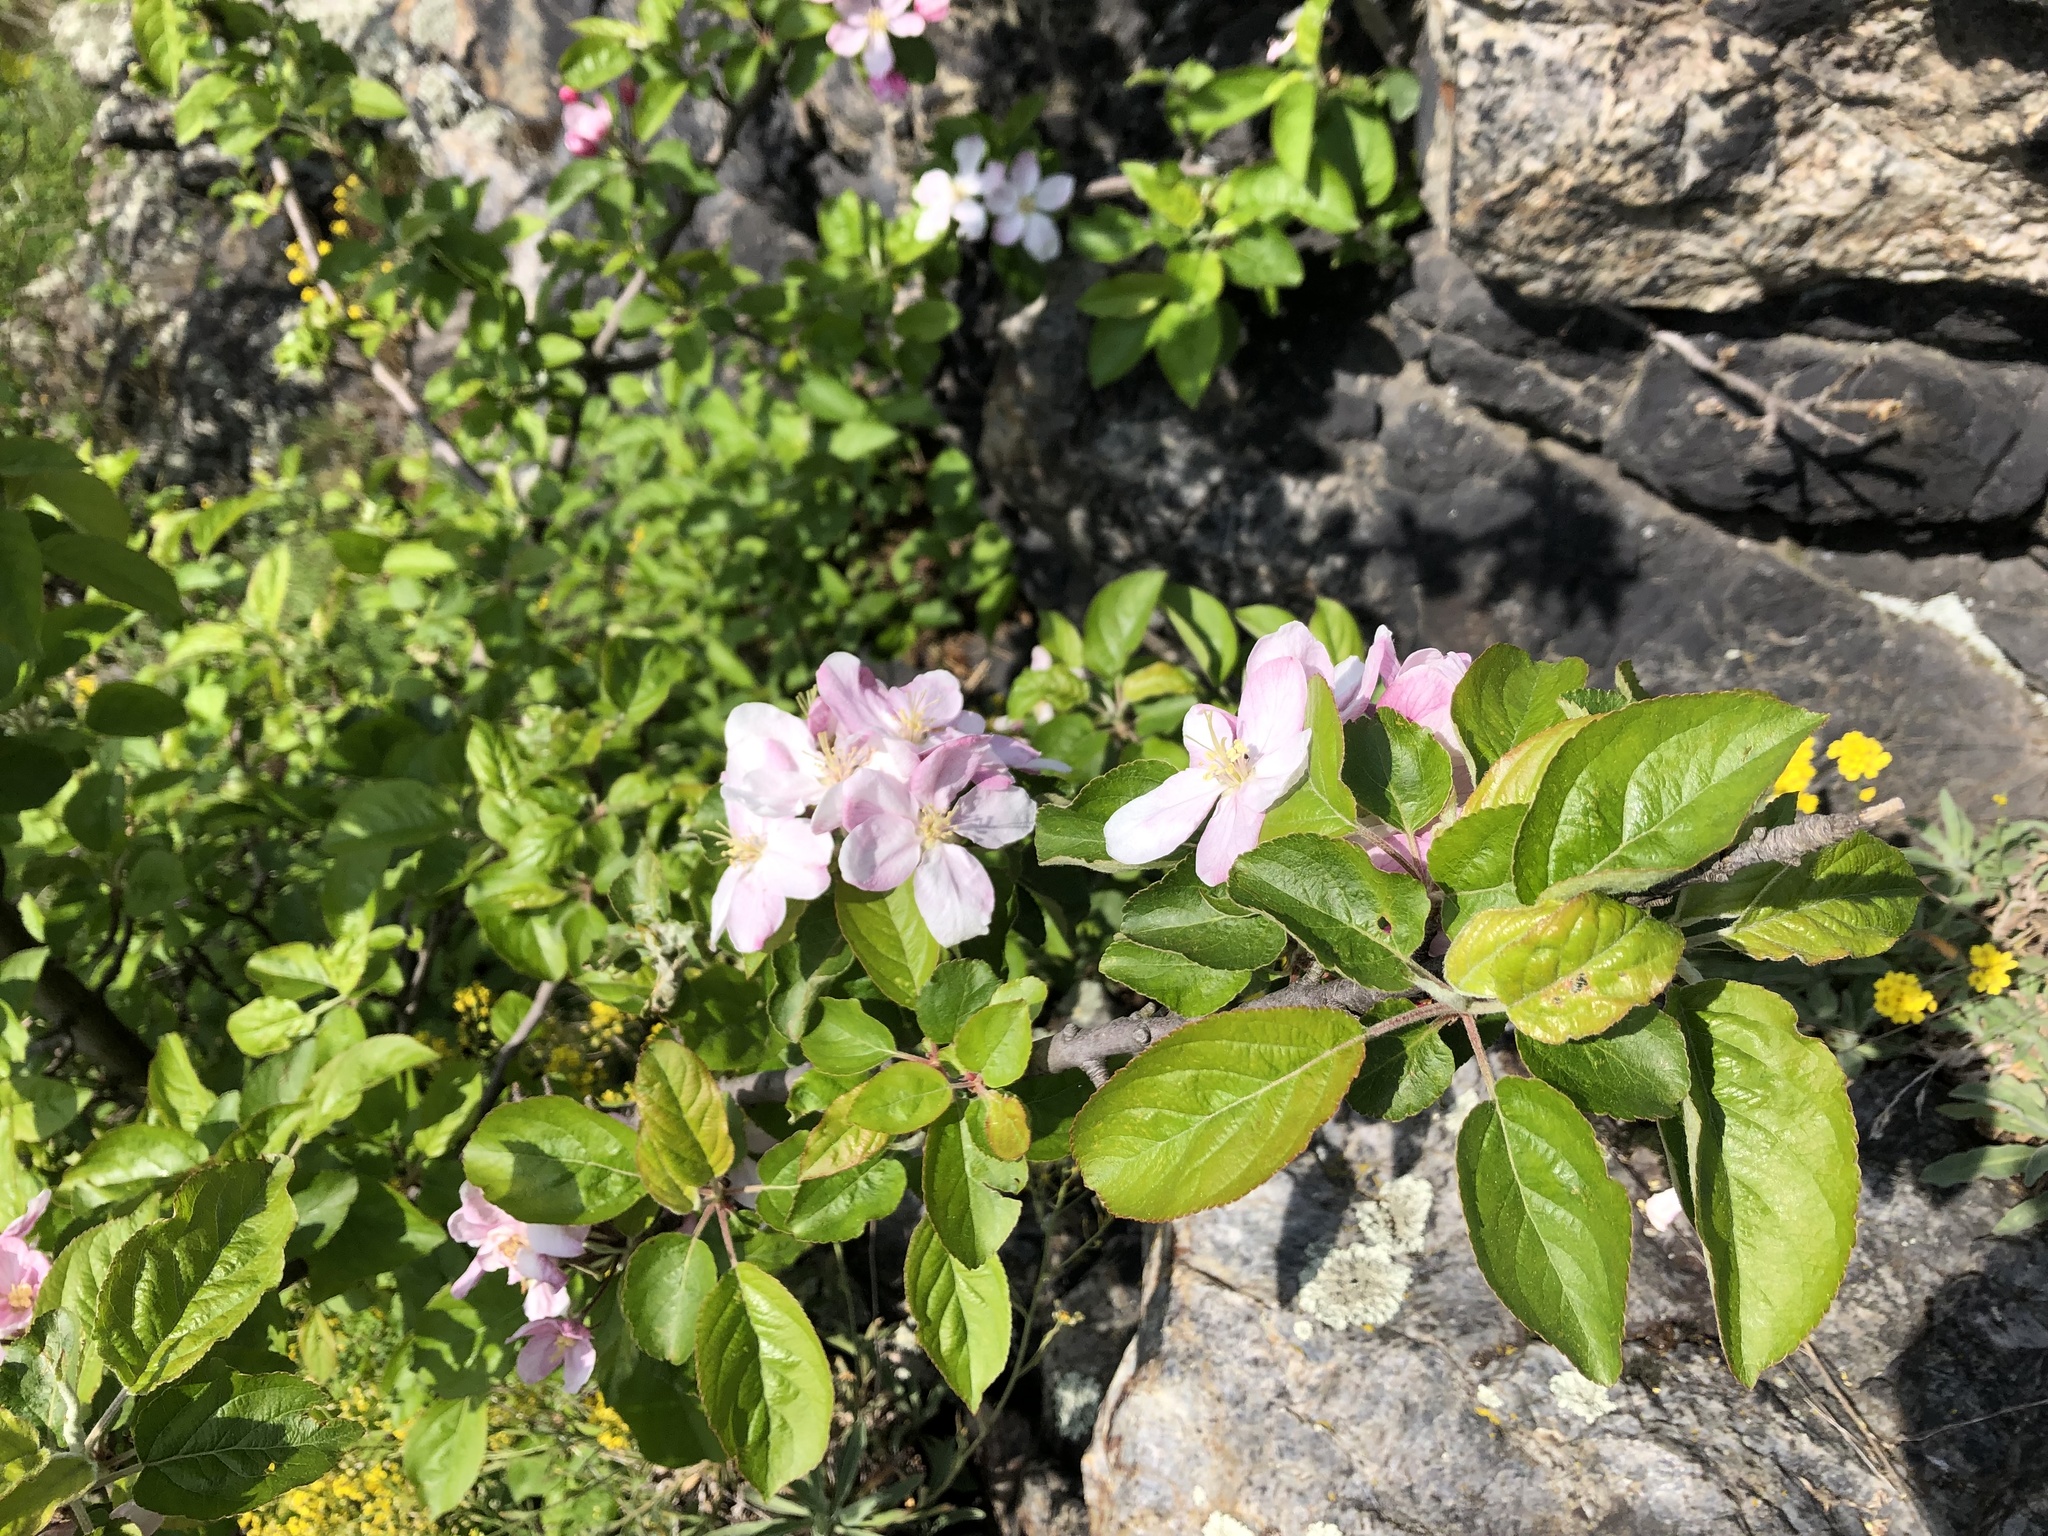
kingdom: Plantae
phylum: Tracheophyta
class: Magnoliopsida
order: Rosales
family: Rosaceae
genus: Malus
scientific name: Malus domestica
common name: Apple
